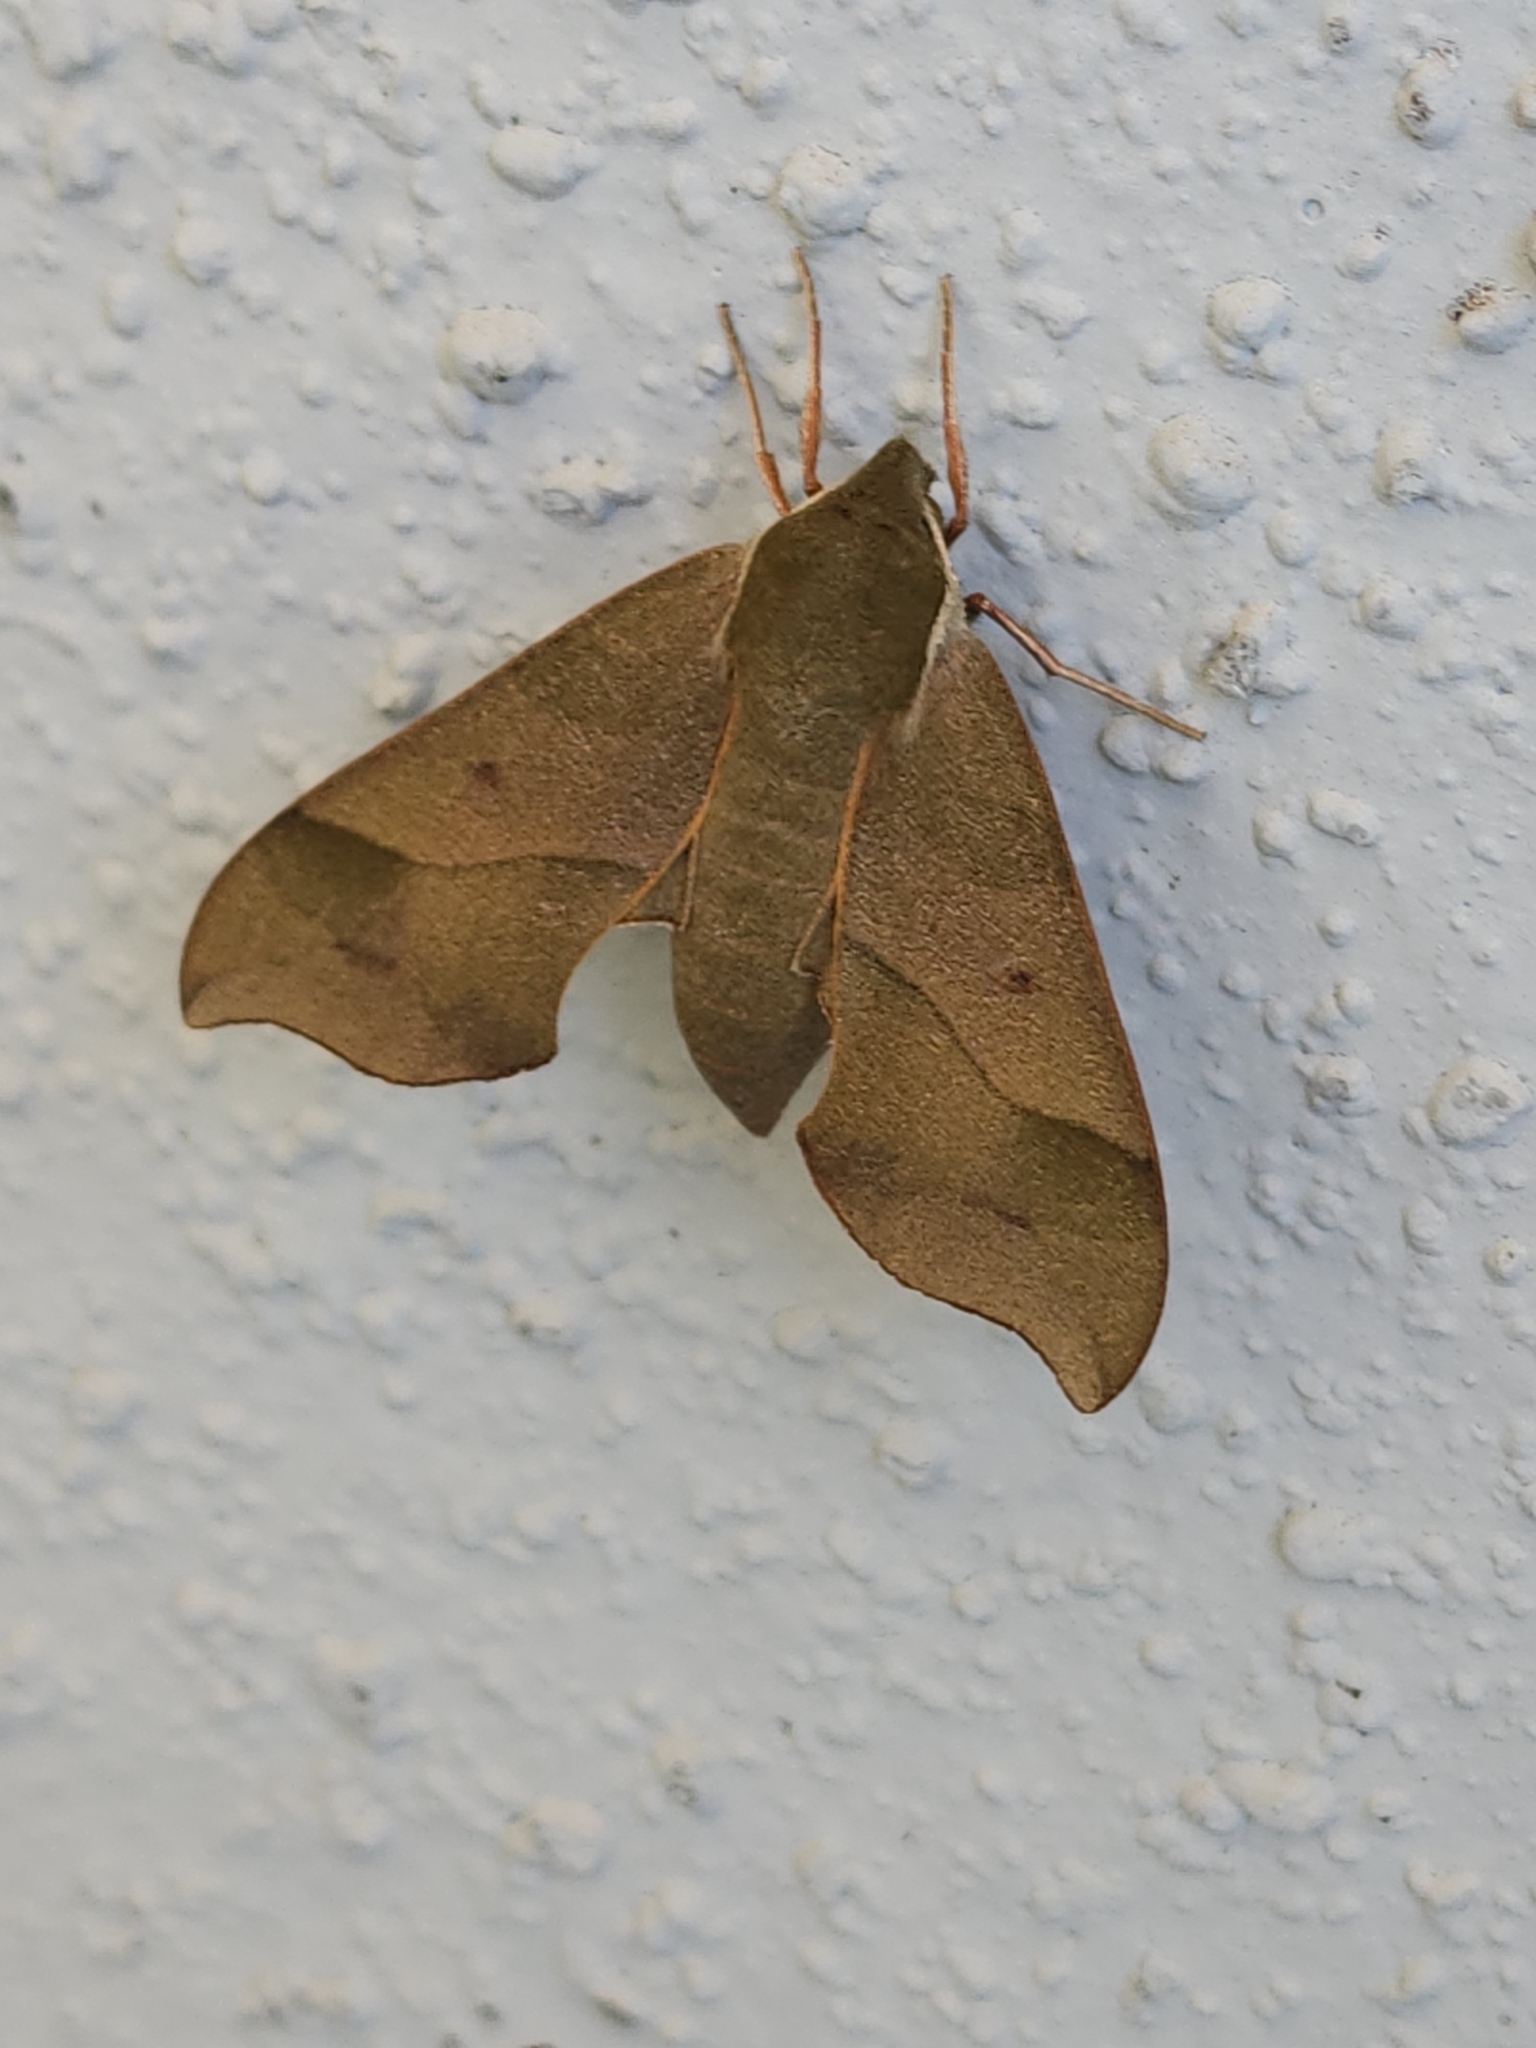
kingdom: Animalia
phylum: Arthropoda
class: Insecta
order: Lepidoptera
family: Sphingidae
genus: Darapsa
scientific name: Darapsa myron
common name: Hog sphinx
